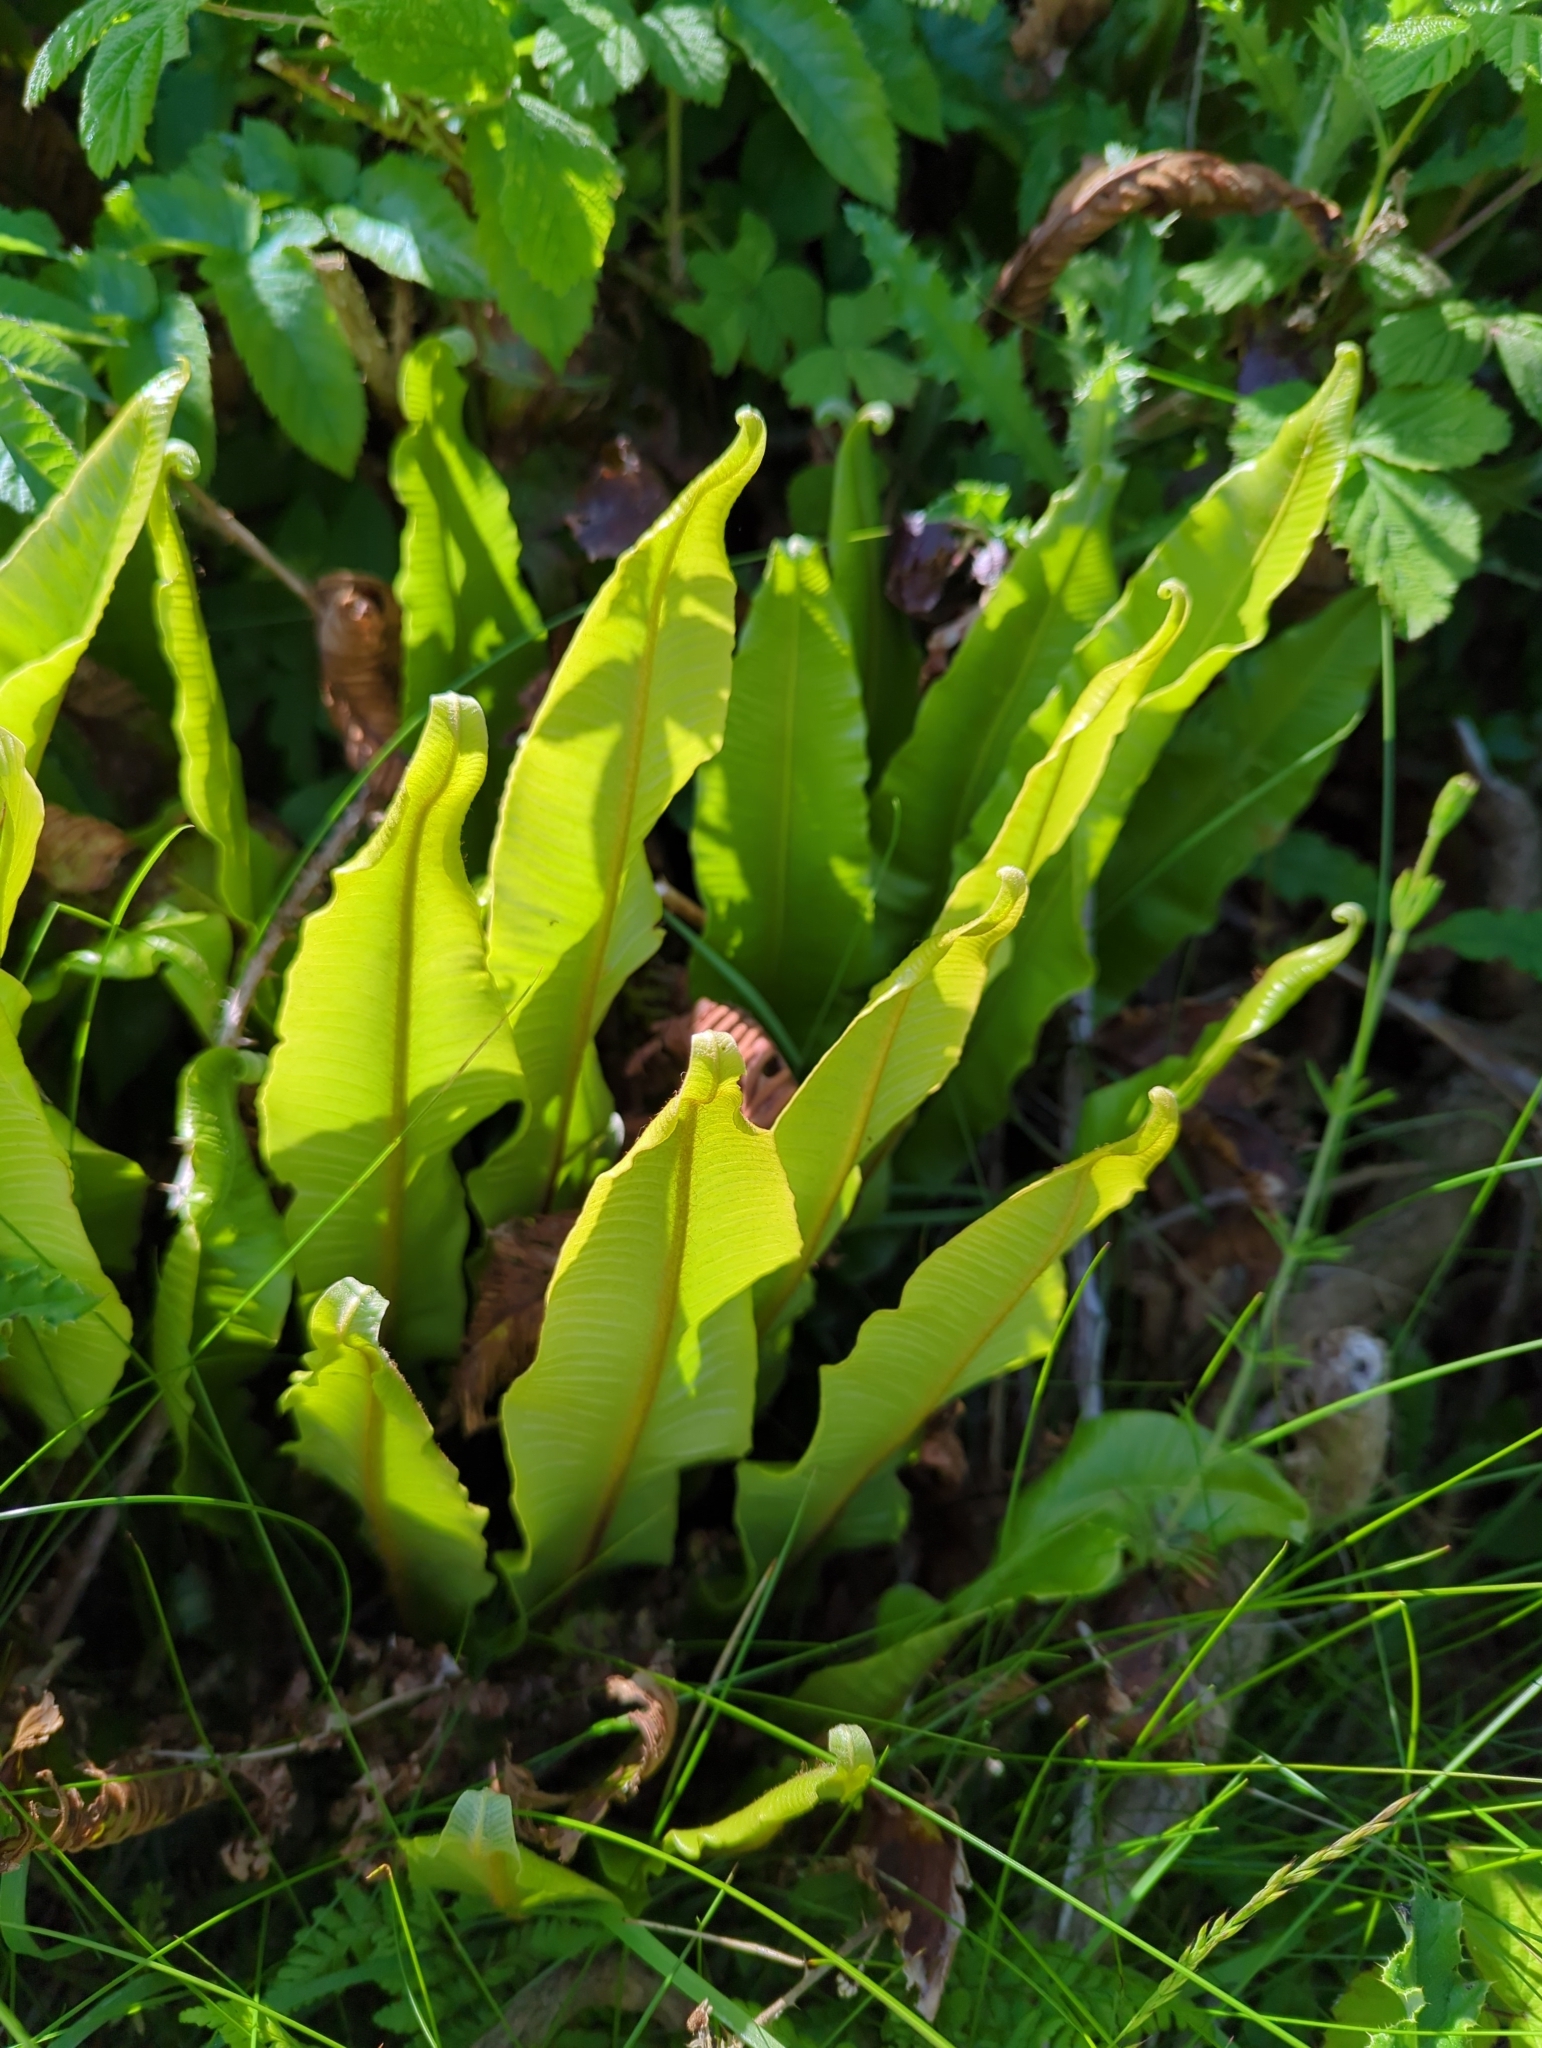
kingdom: Plantae
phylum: Tracheophyta
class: Polypodiopsida
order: Polypodiales
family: Aspleniaceae
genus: Asplenium
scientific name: Asplenium scolopendrium
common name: Hart's-tongue fern
